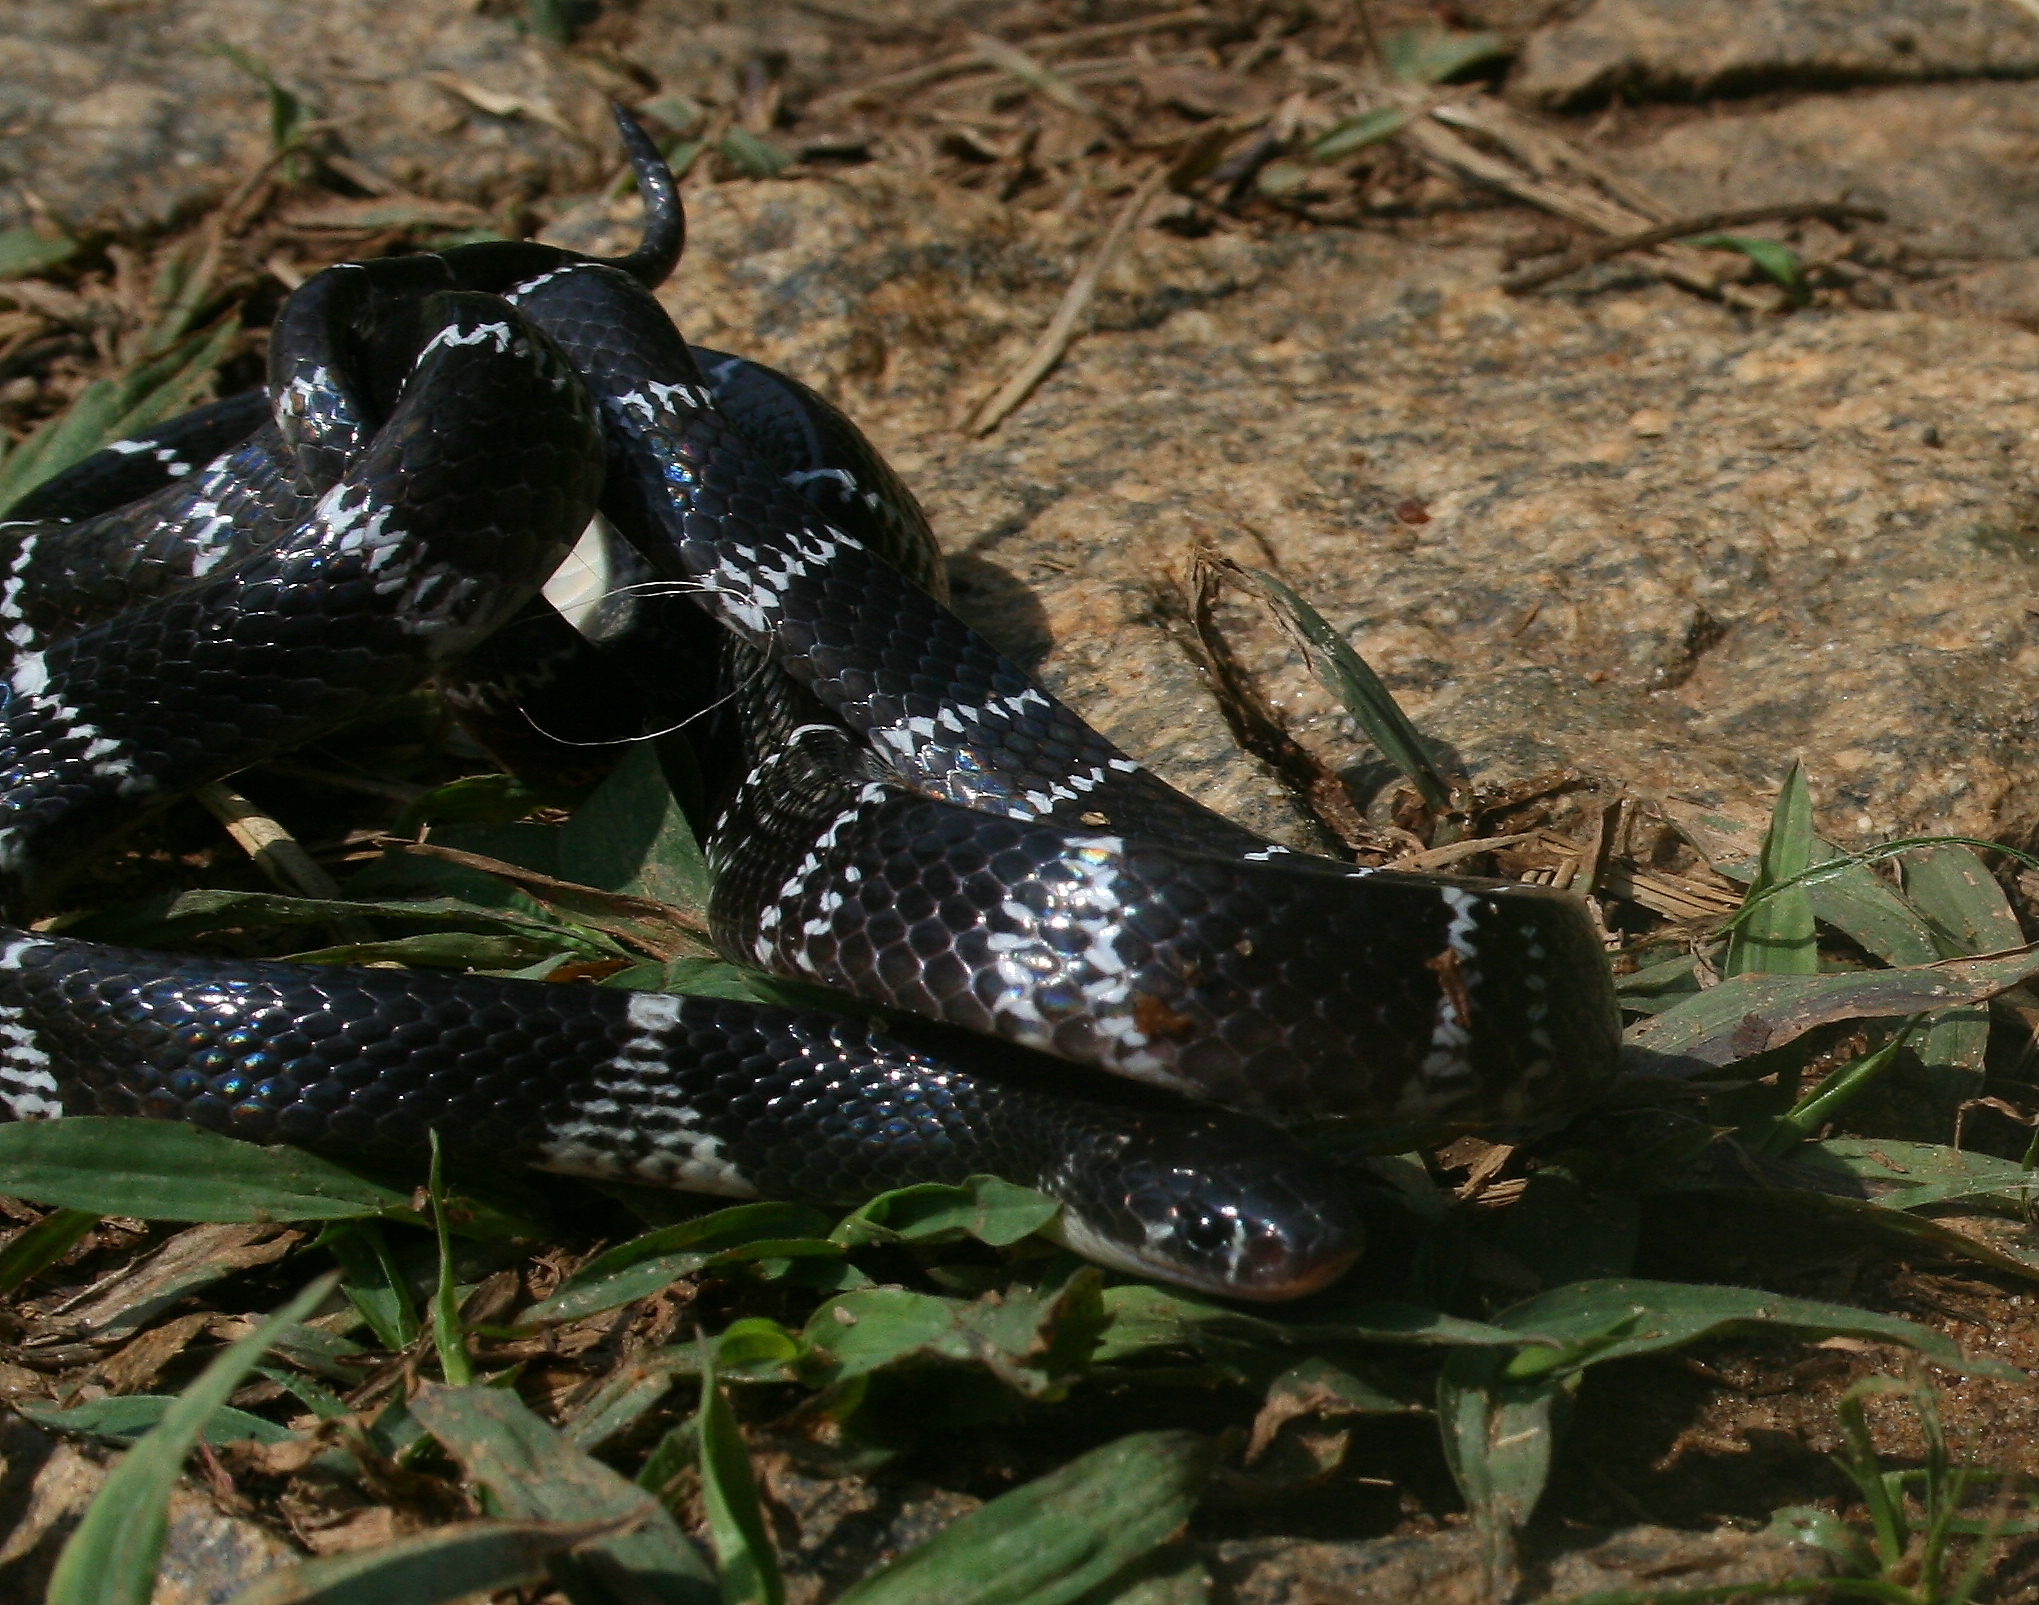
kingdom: Animalia
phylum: Chordata
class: Squamata
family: Elapidae
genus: Bungarus
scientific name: Bungarus caeruleus
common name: Common krait
